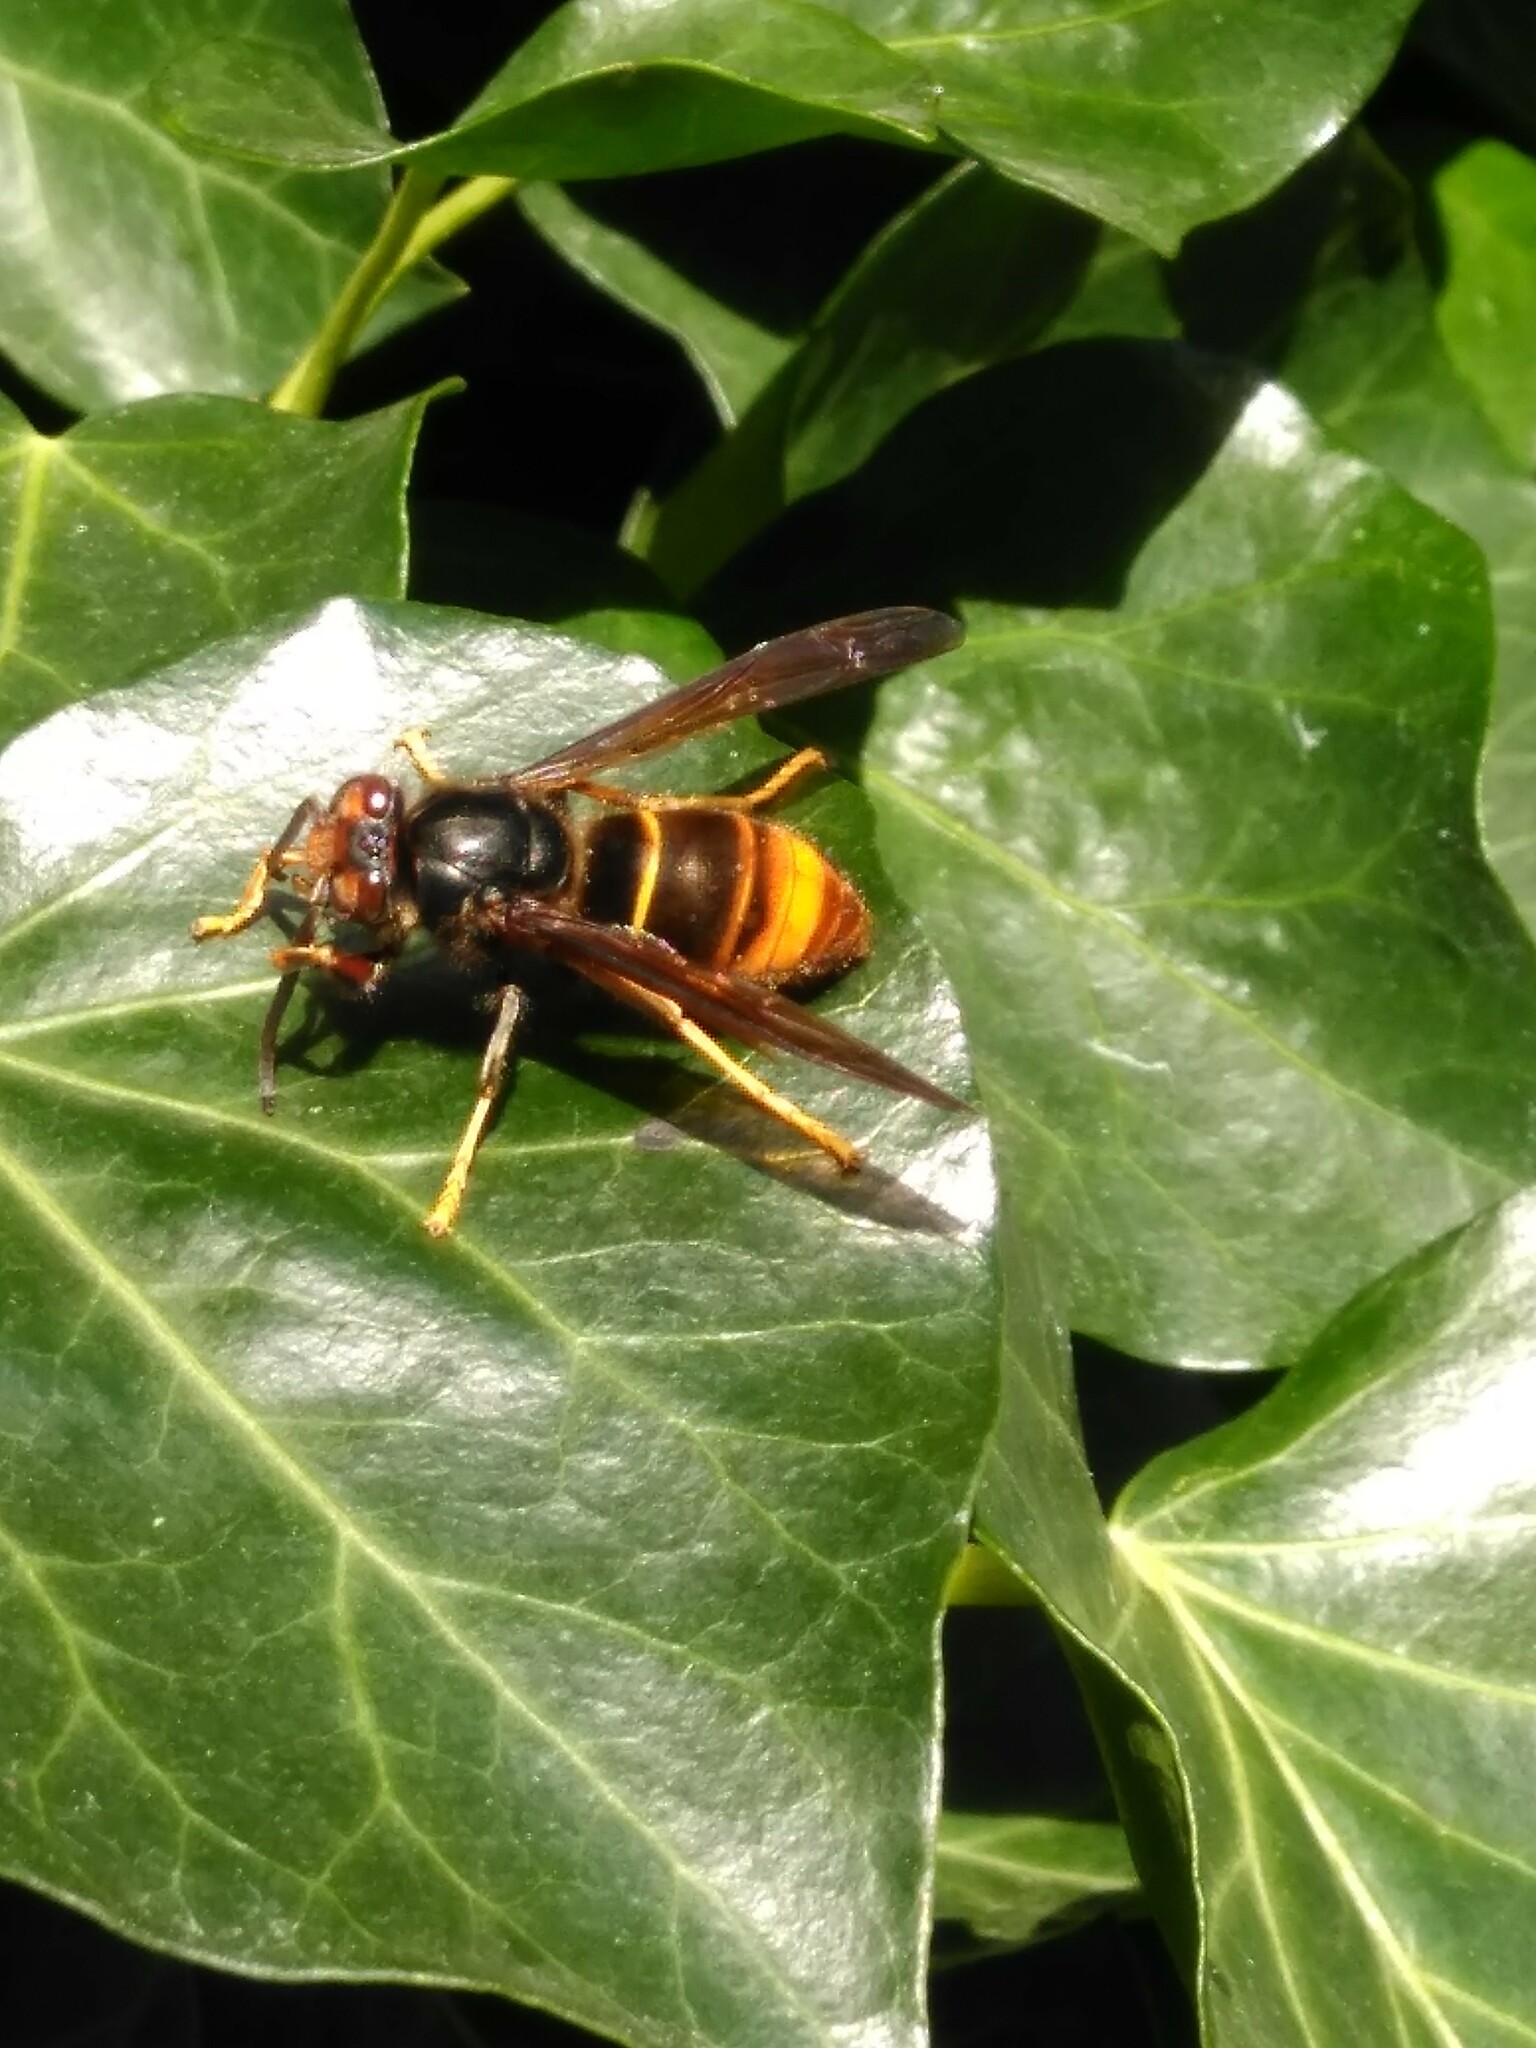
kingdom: Animalia
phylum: Arthropoda
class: Insecta
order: Hymenoptera
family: Vespidae
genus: Vespa
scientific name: Vespa velutina
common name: Asian hornet
